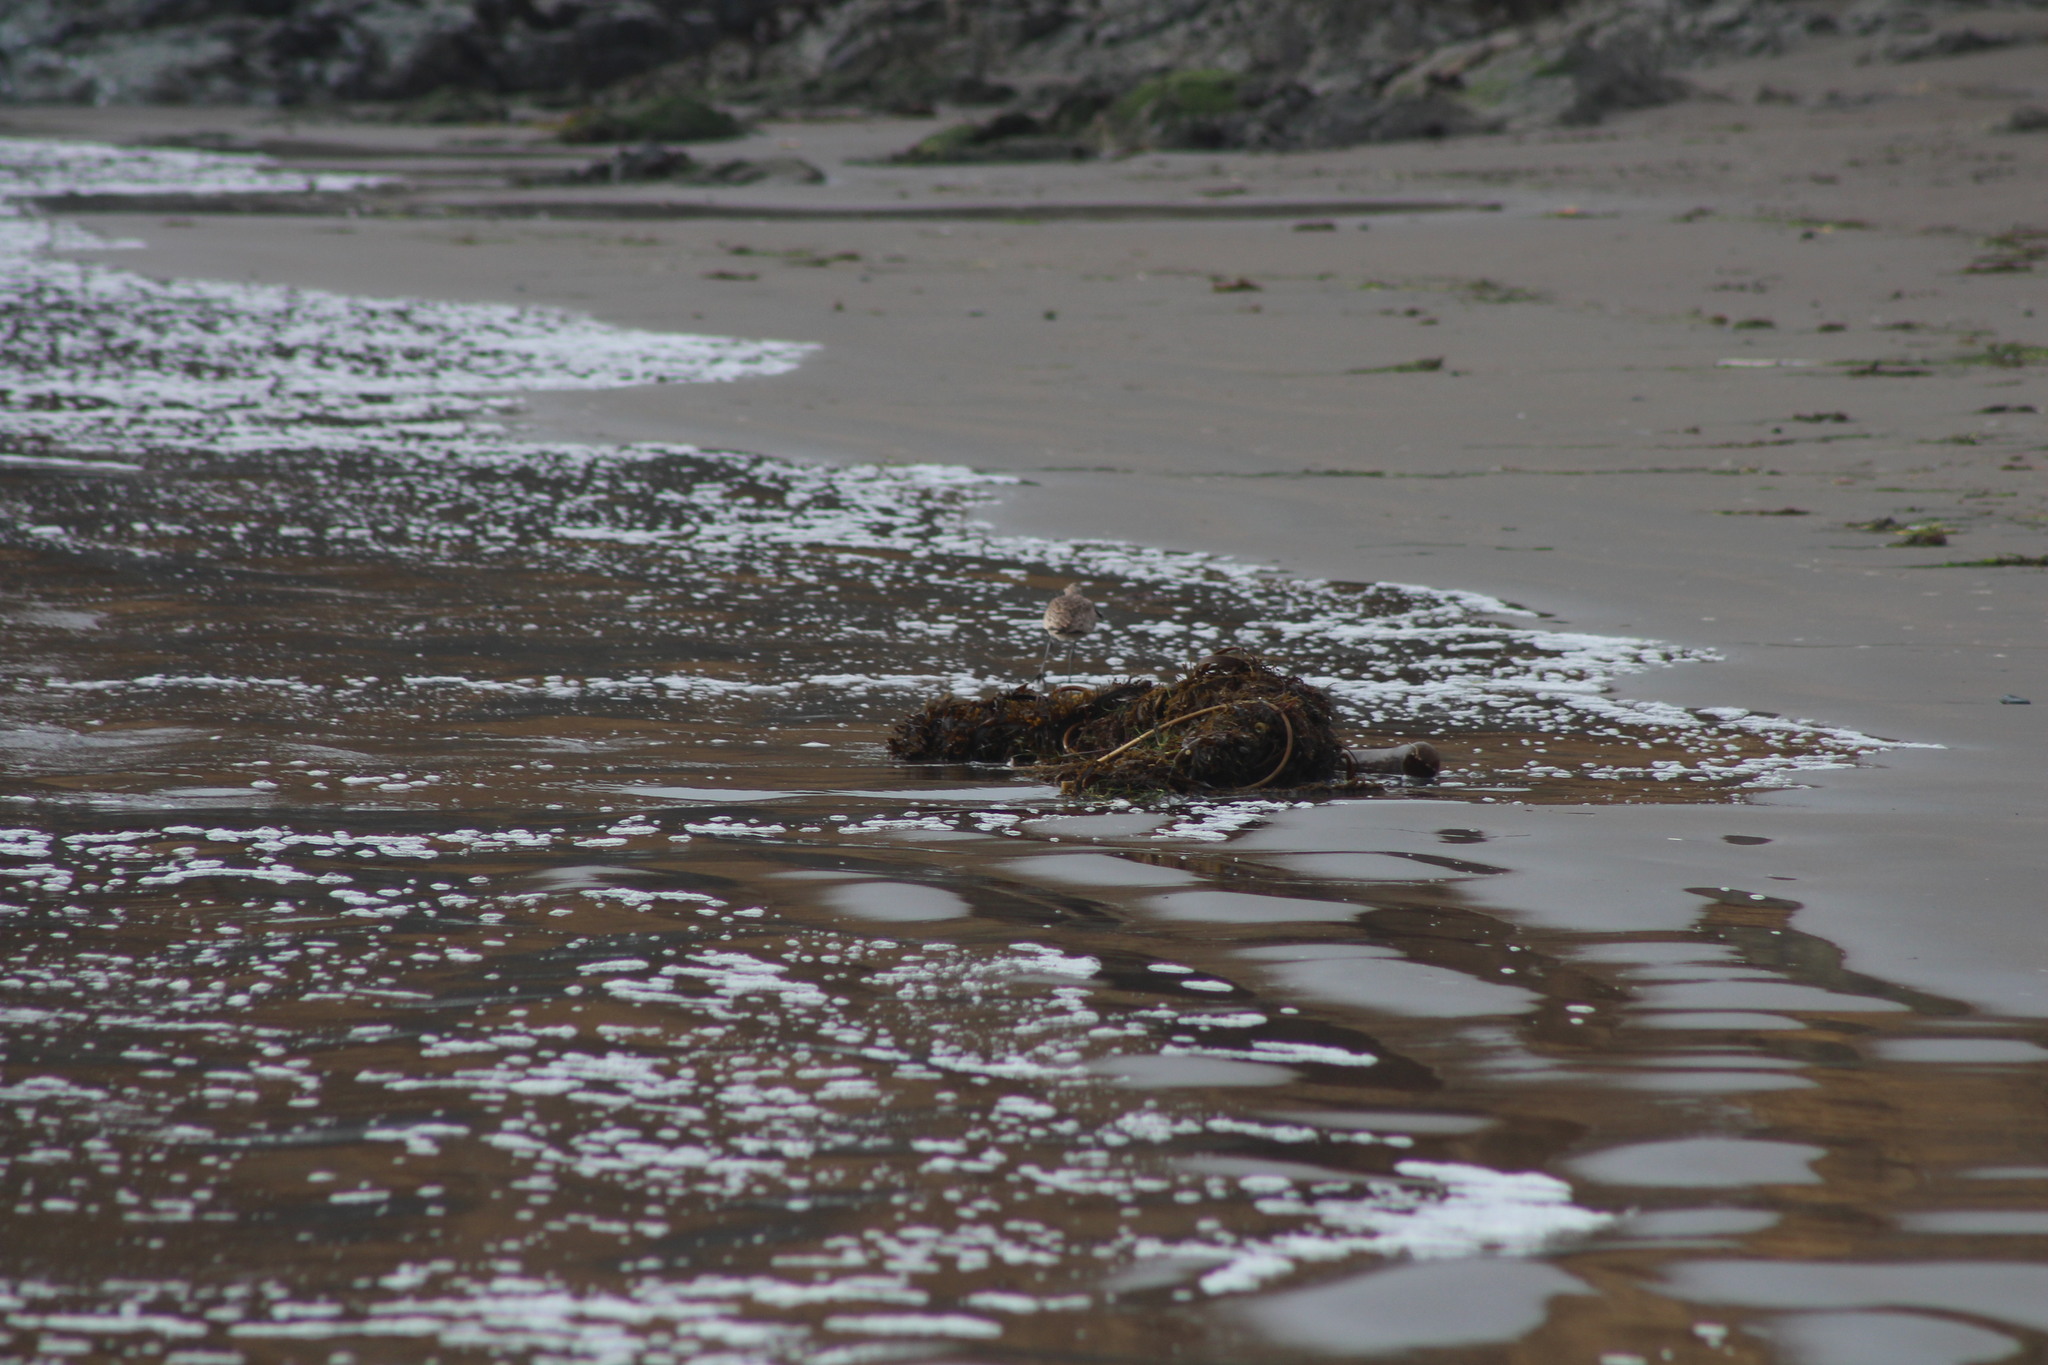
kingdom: Animalia
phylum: Chordata
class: Aves
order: Charadriiformes
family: Scolopacidae
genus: Numenius
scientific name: Numenius phaeopus
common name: Whimbrel
